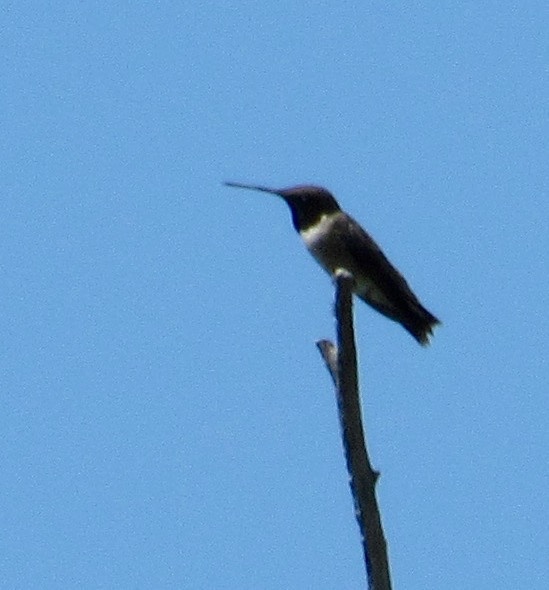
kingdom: Animalia
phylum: Chordata
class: Aves
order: Apodiformes
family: Trochilidae
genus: Archilochus
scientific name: Archilochus alexandri
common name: Black-chinned hummingbird
